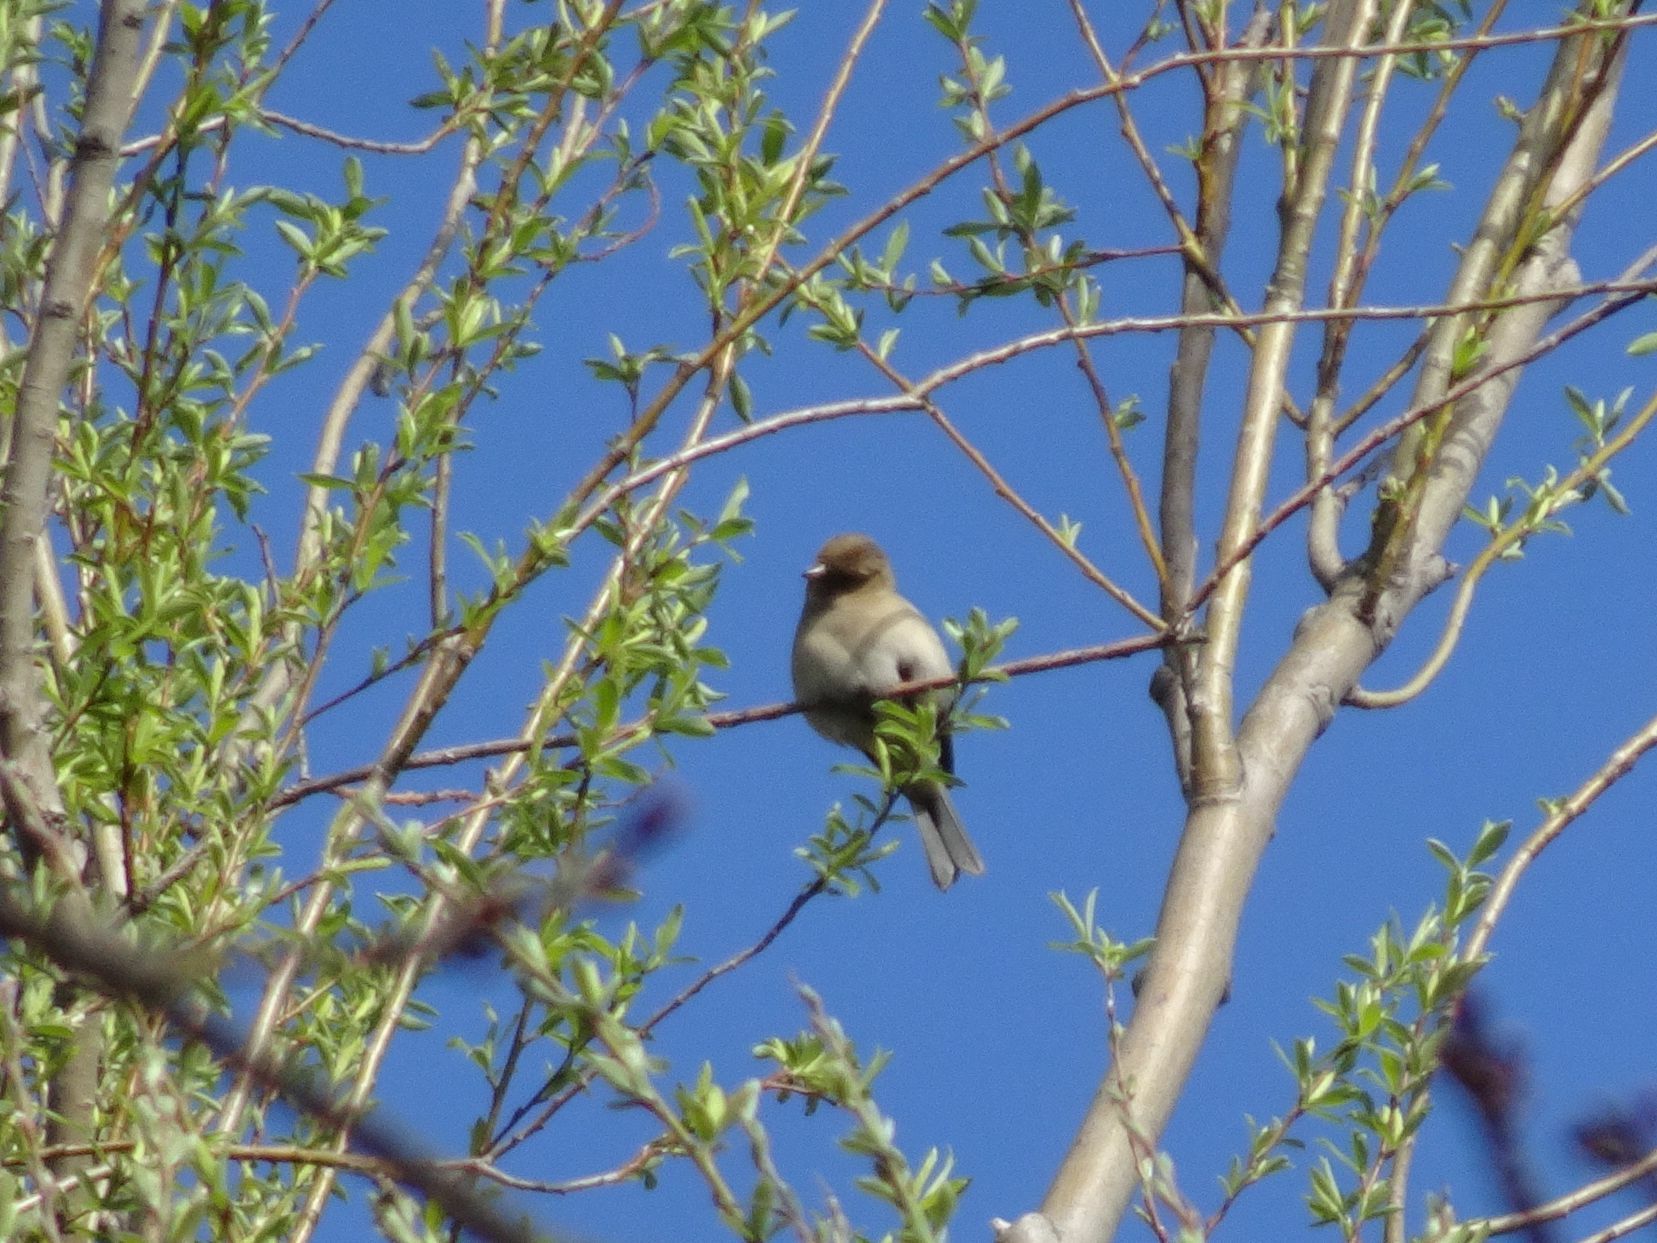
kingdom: Animalia
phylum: Chordata
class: Aves
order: Passeriformes
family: Fringillidae
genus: Fringilla
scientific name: Fringilla coelebs
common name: Common chaffinch
